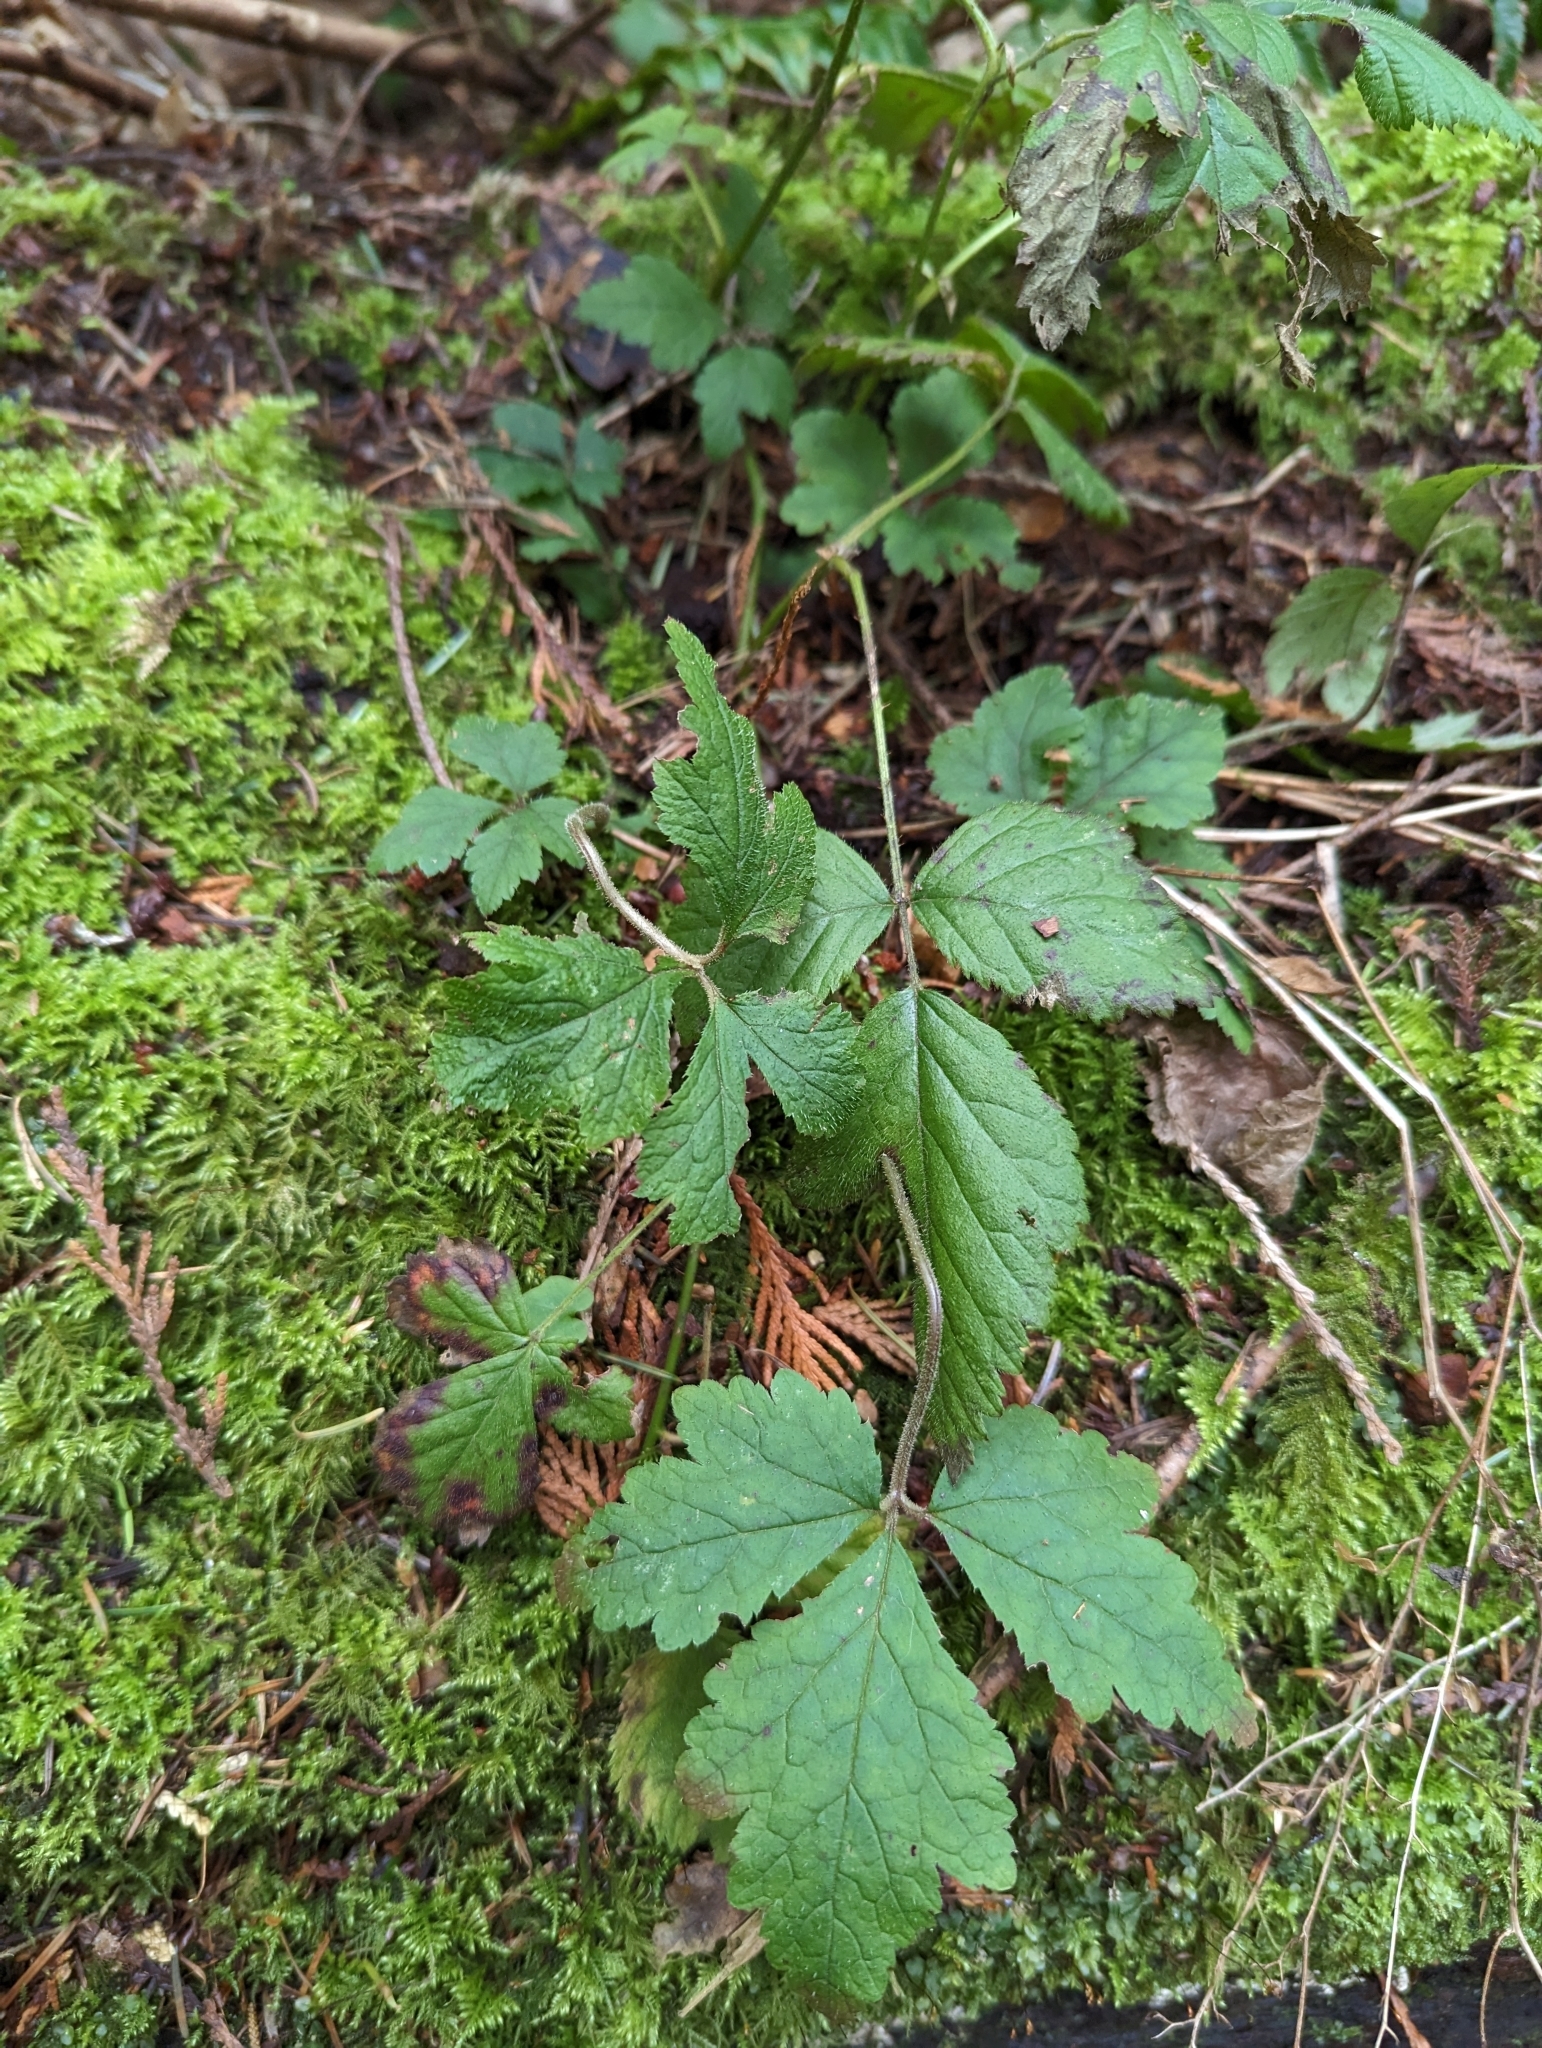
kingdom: Plantae
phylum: Tracheophyta
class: Magnoliopsida
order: Saxifragales
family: Saxifragaceae
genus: Tiarella
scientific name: Tiarella trifoliata
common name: Sugar-scoop
